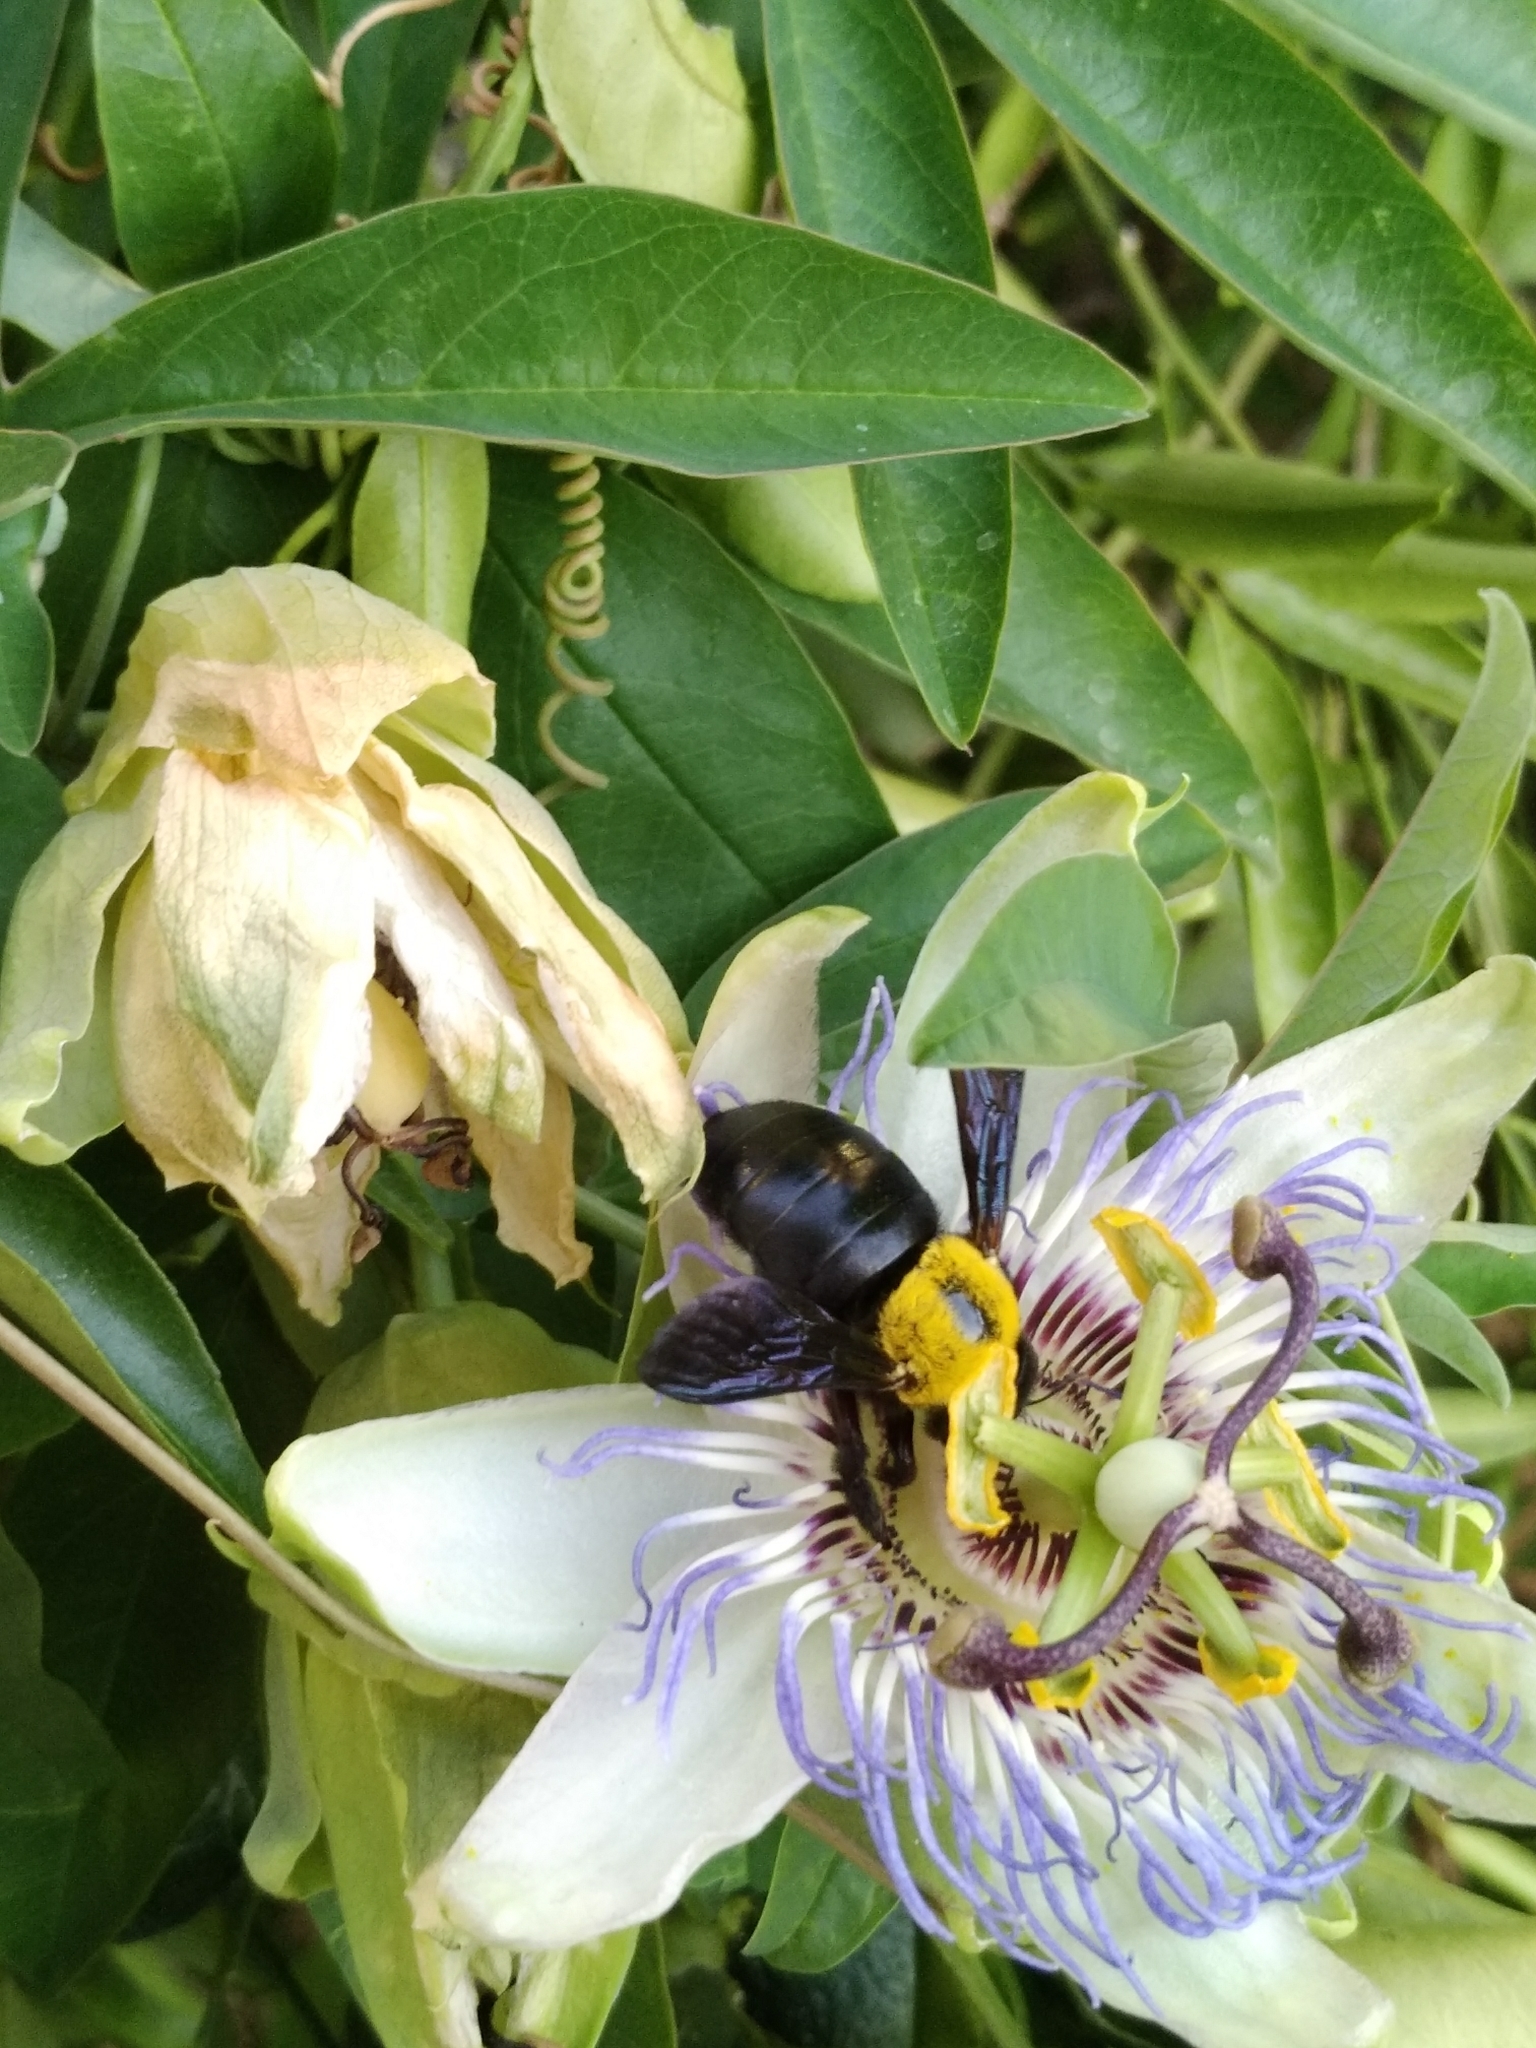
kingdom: Animalia
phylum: Arthropoda
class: Insecta
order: Hymenoptera
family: Apidae
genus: Xylocopa
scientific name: Xylocopa pubescens
